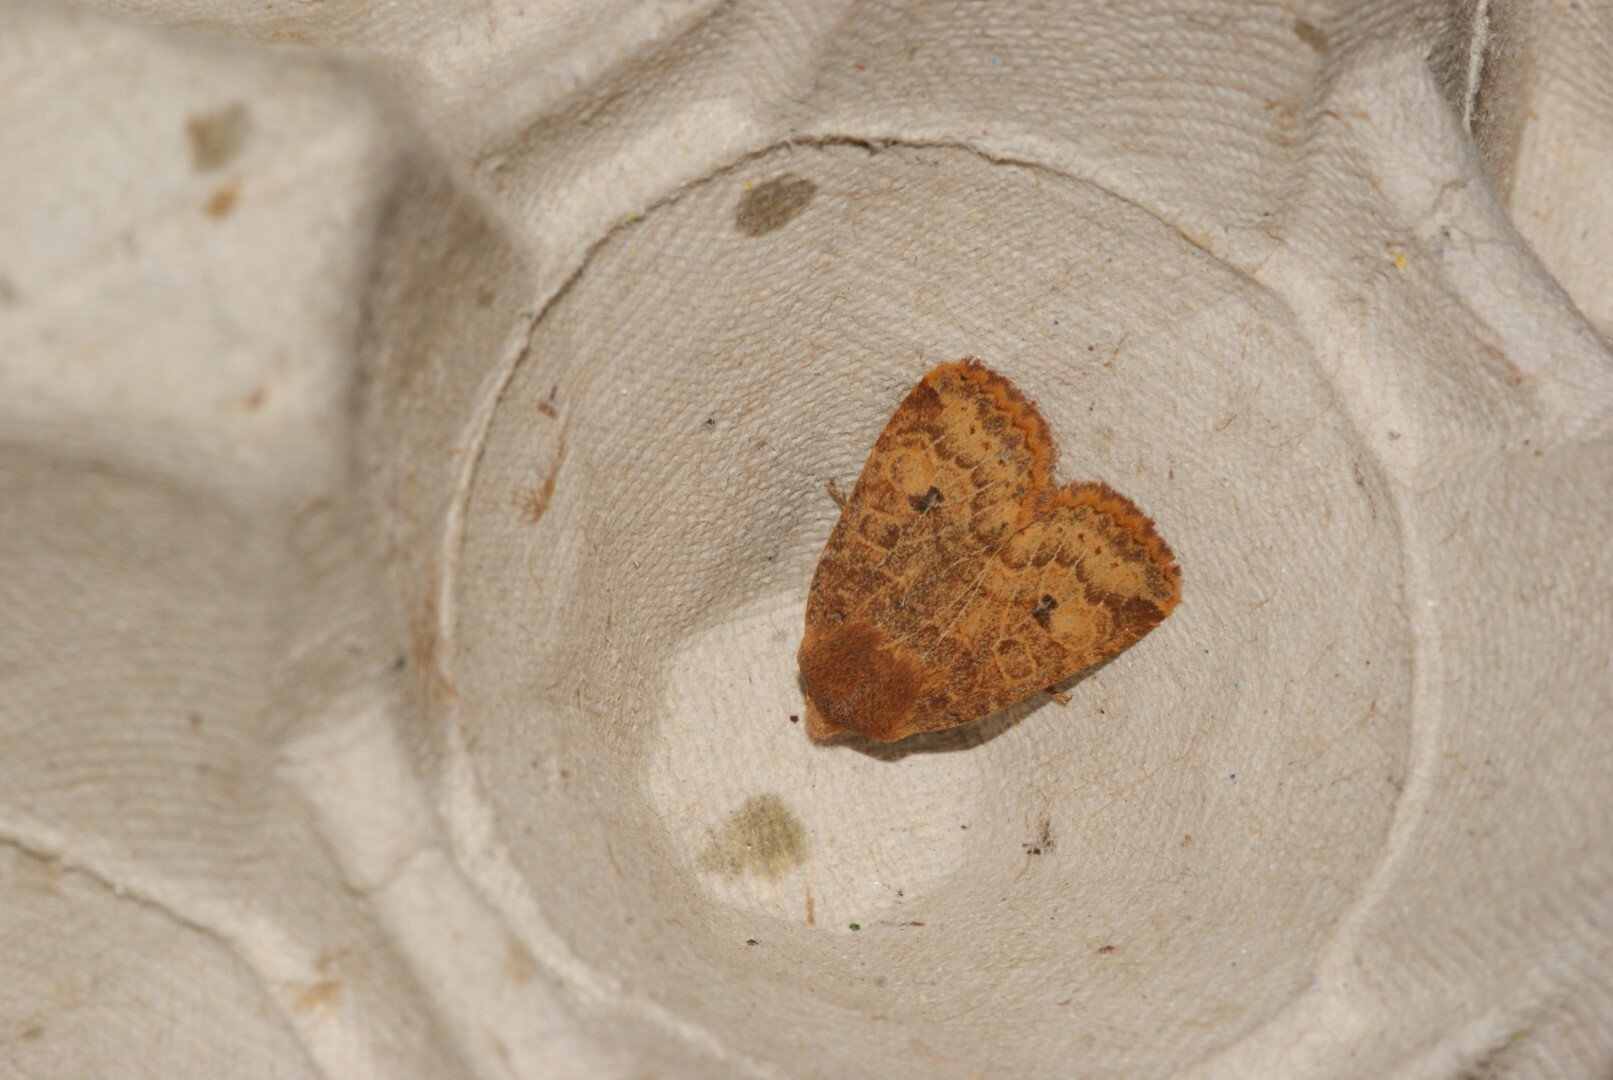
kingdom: Animalia
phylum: Arthropoda
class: Insecta
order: Lepidoptera
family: Noctuidae
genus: Conistra
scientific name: Conistra vaccinii
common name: Chestnut
